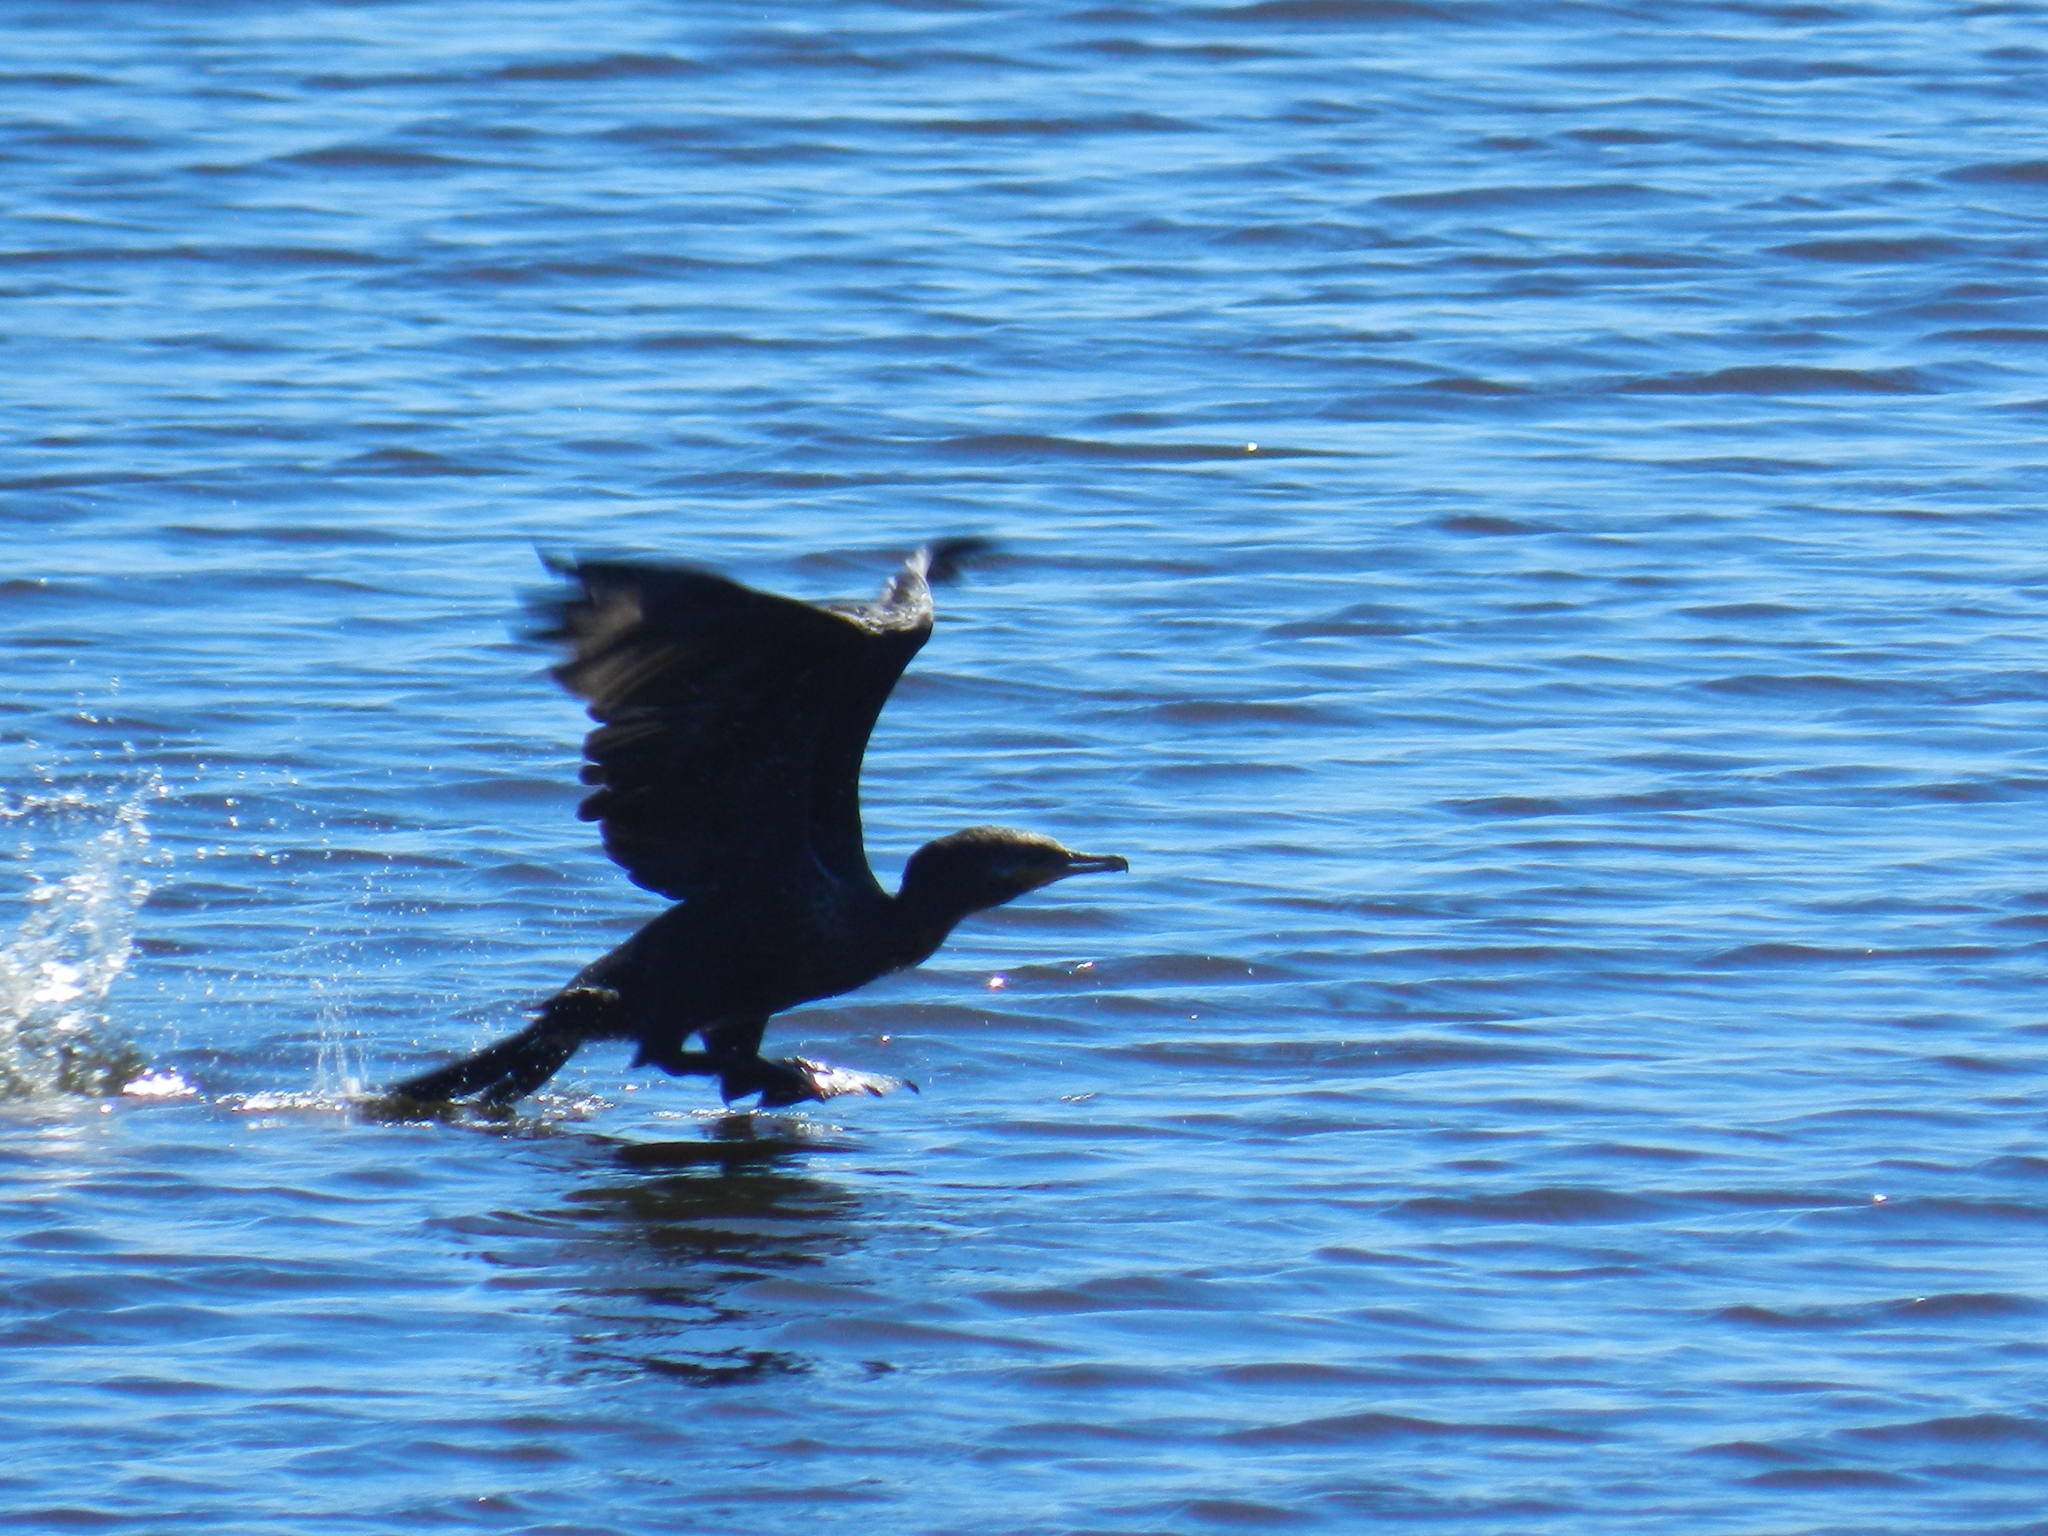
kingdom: Animalia
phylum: Chordata
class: Aves
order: Suliformes
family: Phalacrocoracidae
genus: Phalacrocorax
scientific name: Phalacrocorax brasilianus
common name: Neotropic cormorant
